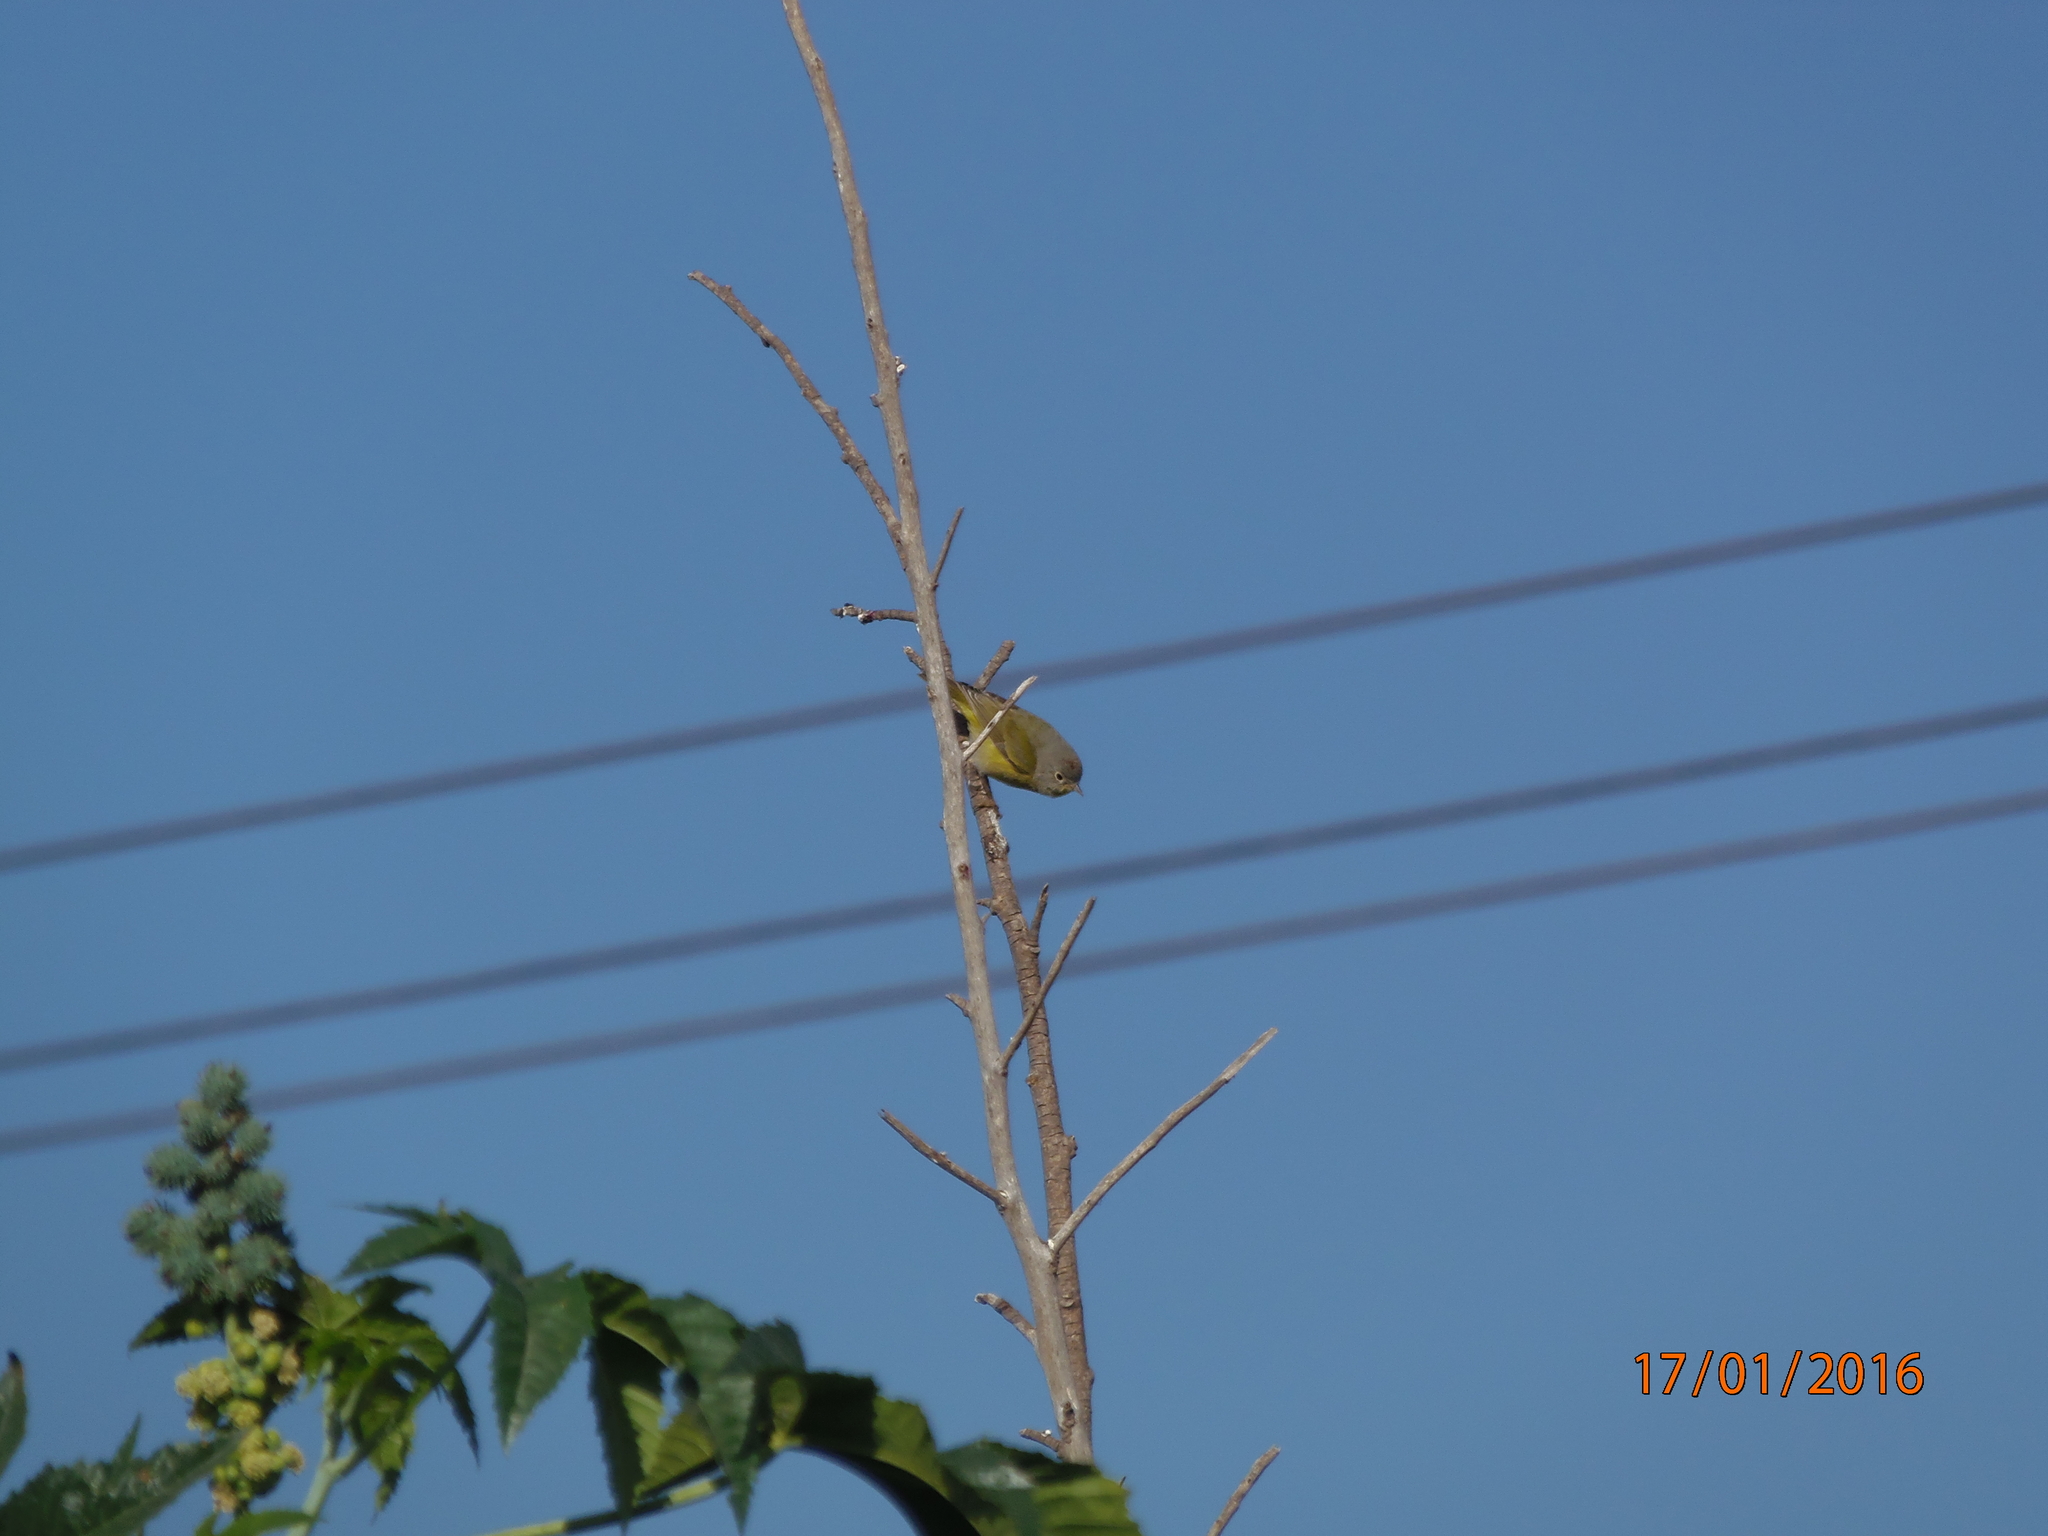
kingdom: Animalia
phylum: Chordata
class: Aves
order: Passeriformes
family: Fringillidae
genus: Spinus
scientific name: Spinus psaltria
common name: Lesser goldfinch
